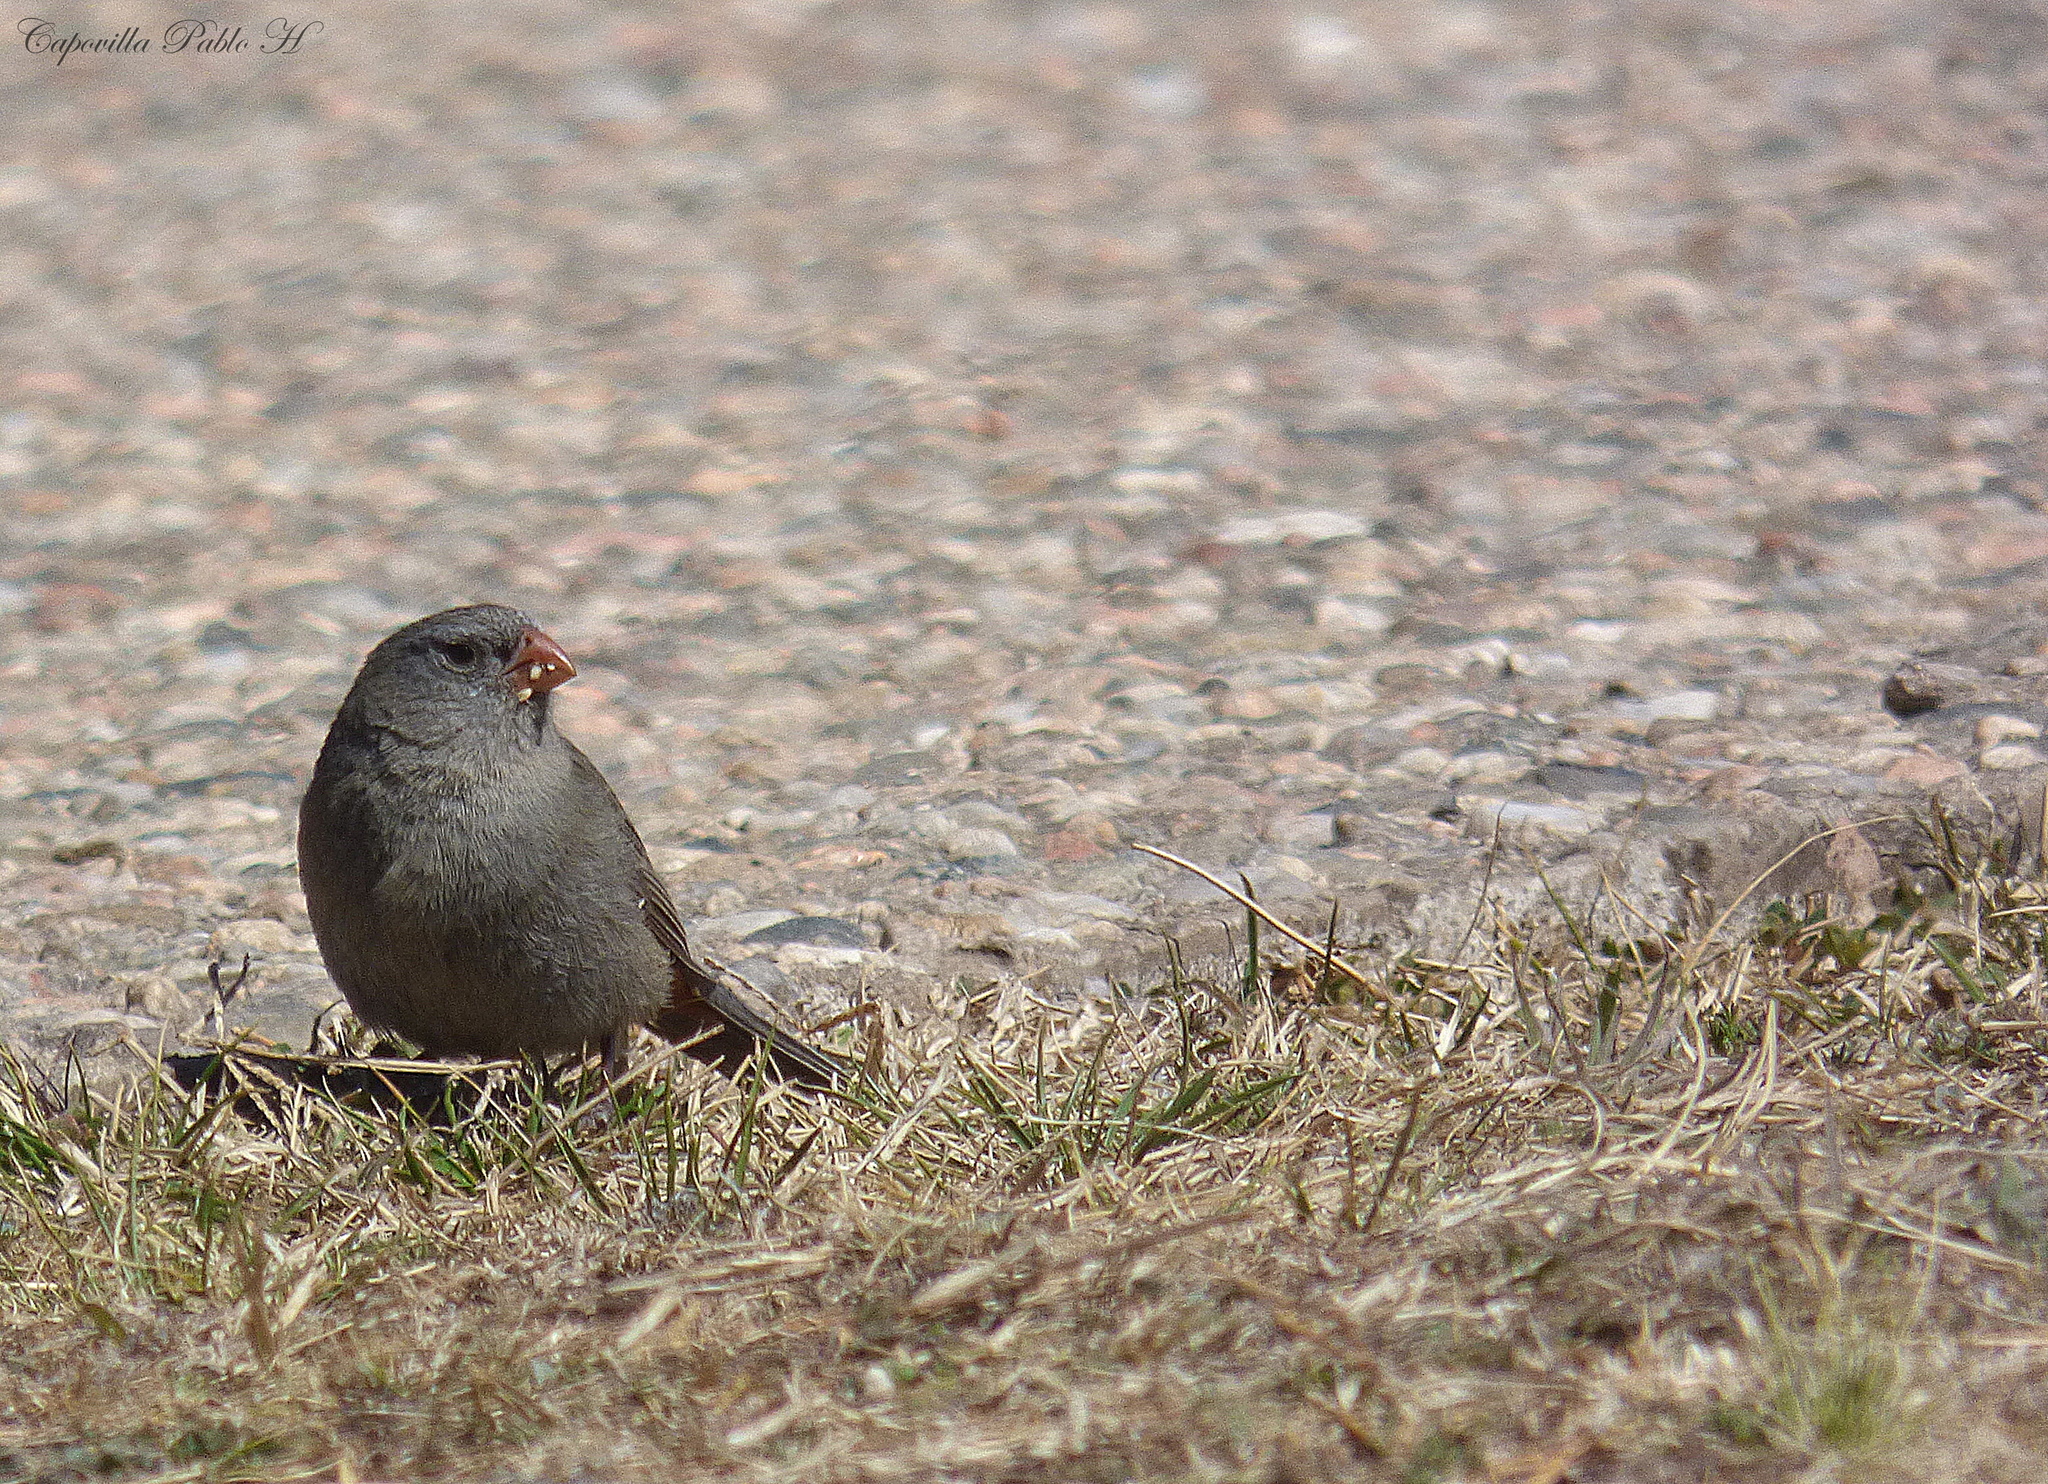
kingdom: Animalia
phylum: Chordata
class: Aves
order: Passeriformes
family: Thraupidae
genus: Catamenia
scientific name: Catamenia inornata
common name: Plain-colored seedeater
